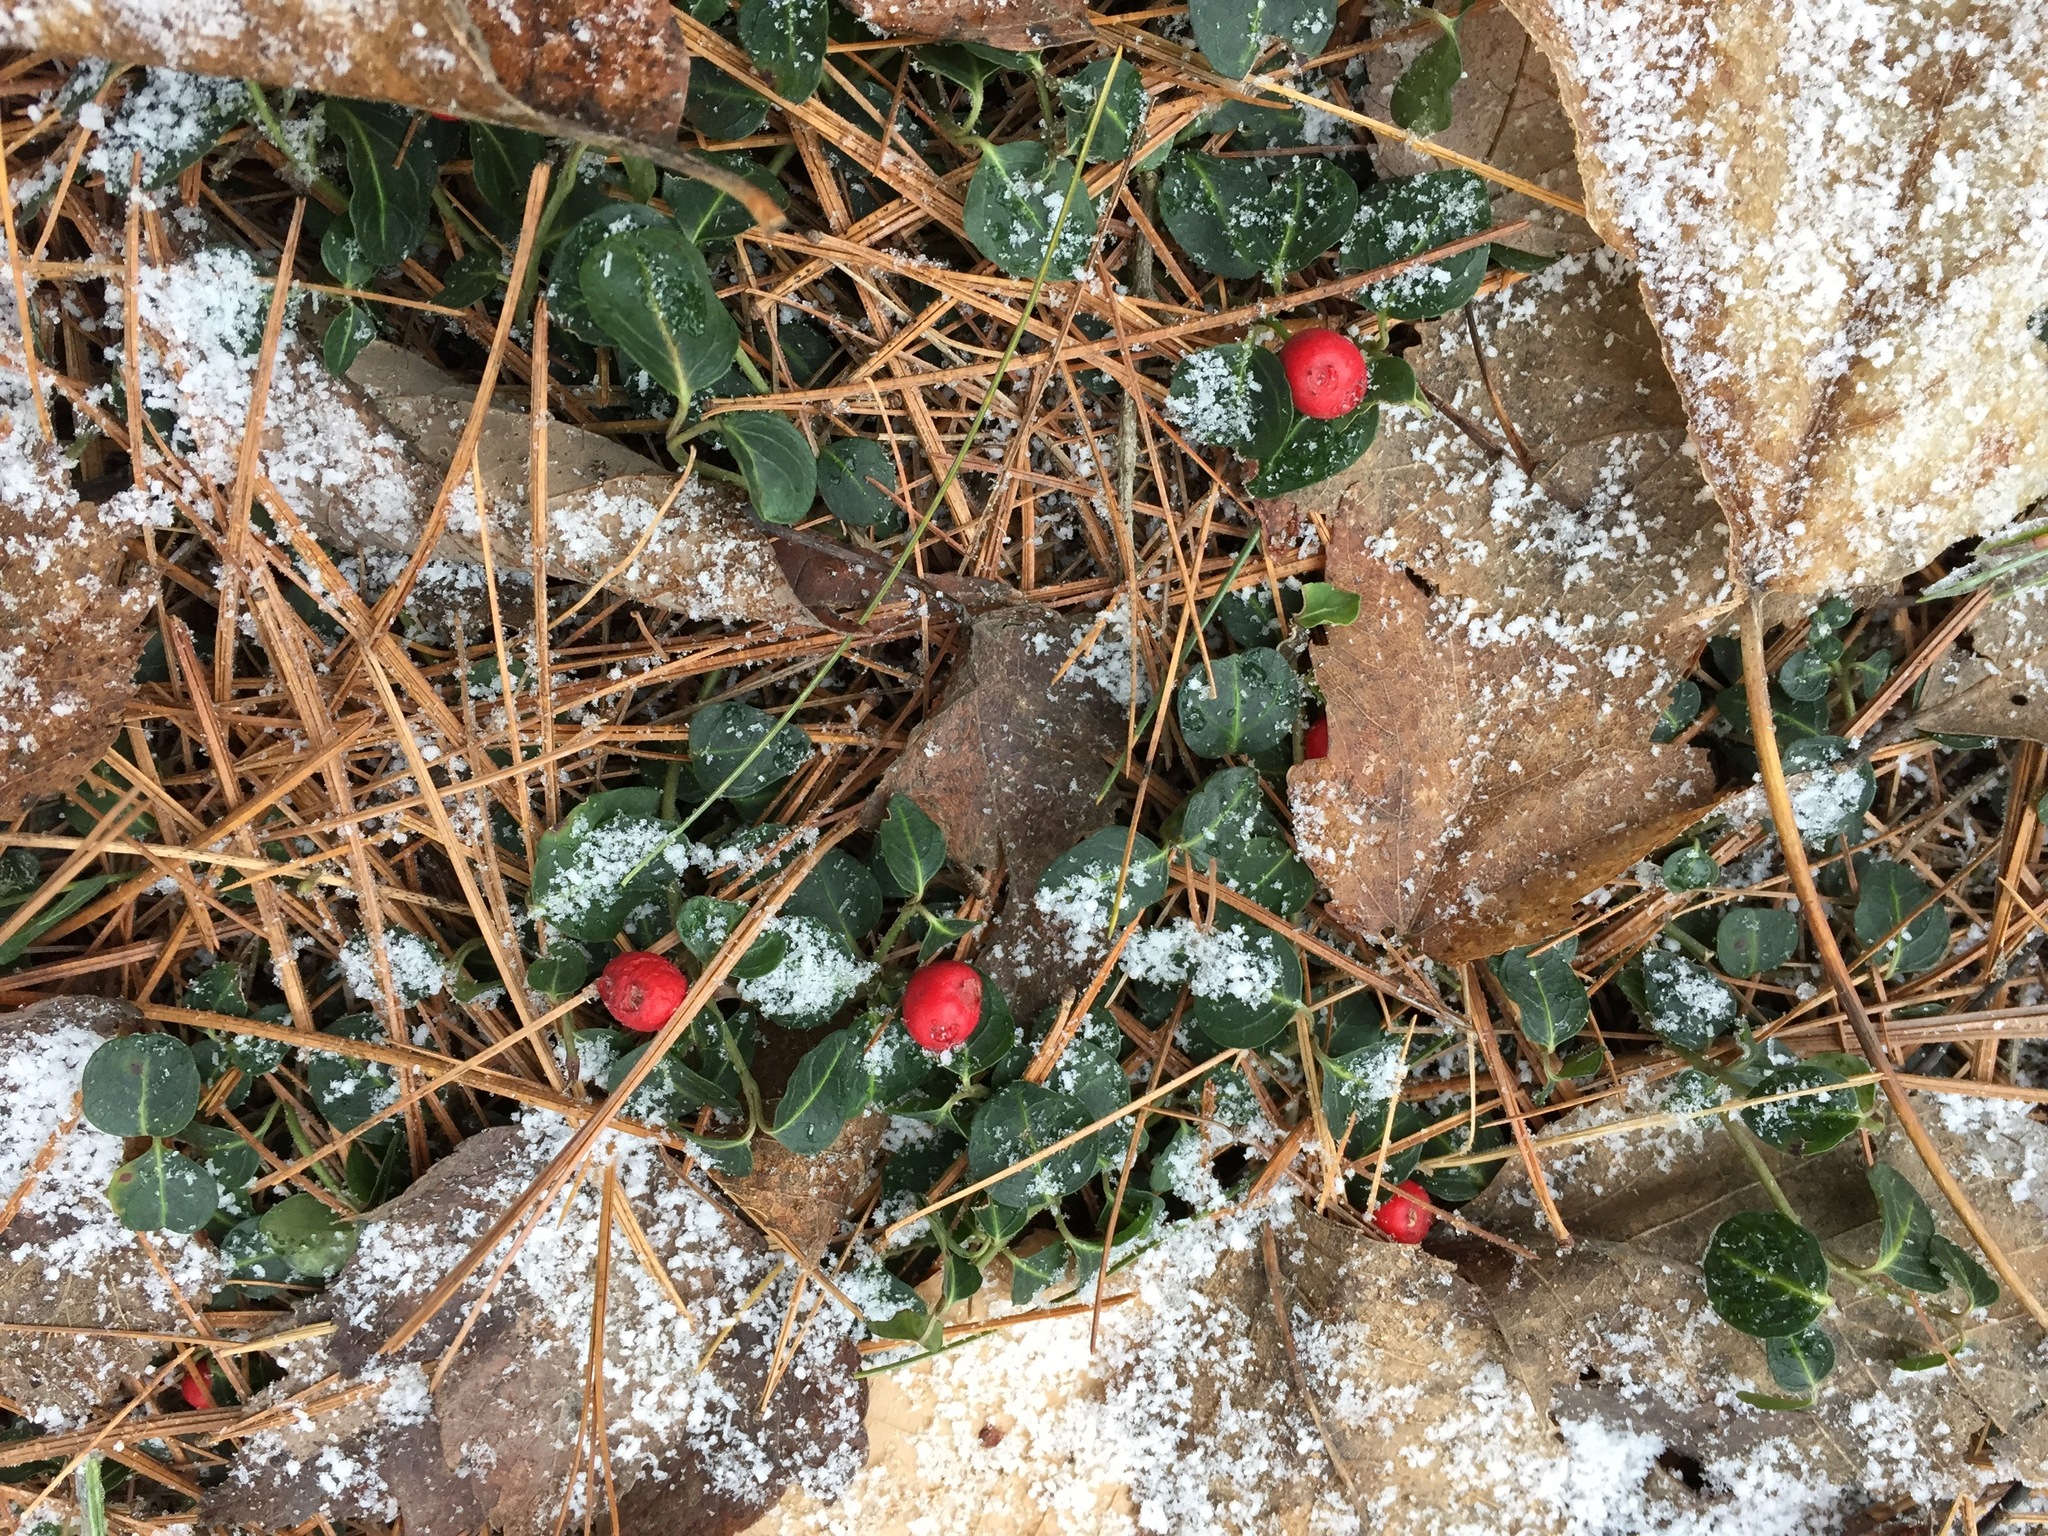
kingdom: Plantae
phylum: Tracheophyta
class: Magnoliopsida
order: Gentianales
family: Rubiaceae
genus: Mitchella
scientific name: Mitchella repens
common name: Partridge-berry
